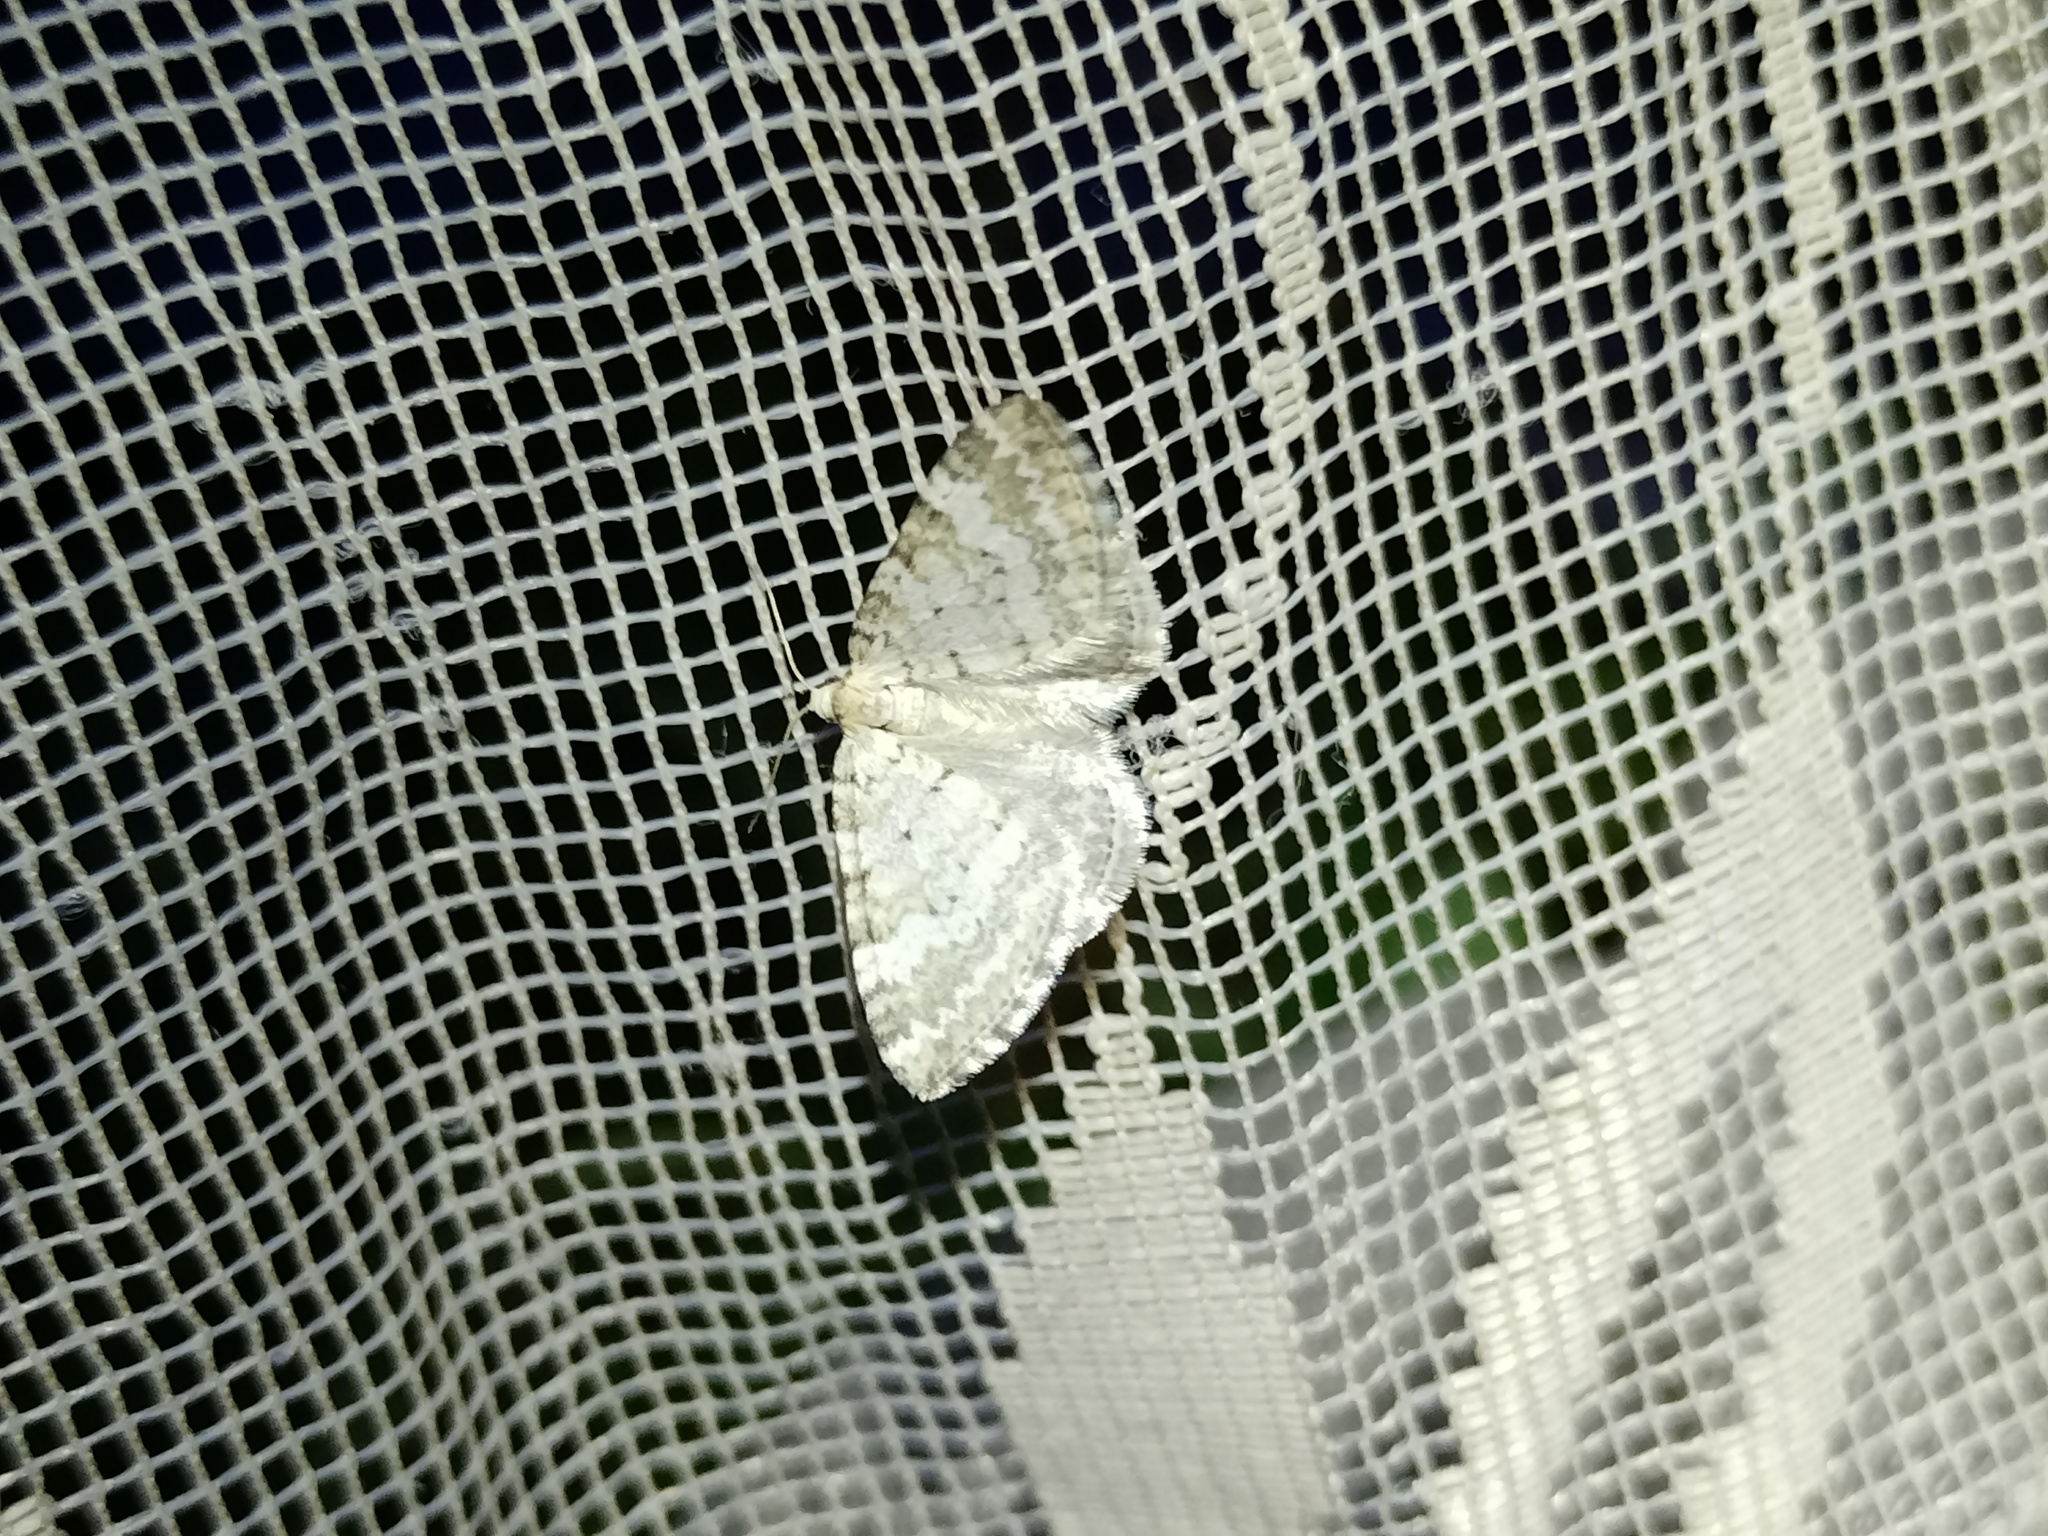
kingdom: Animalia
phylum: Arthropoda
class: Insecta
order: Lepidoptera
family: Geometridae
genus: Perizoma
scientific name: Perizoma albulata
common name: Grass rivulet
